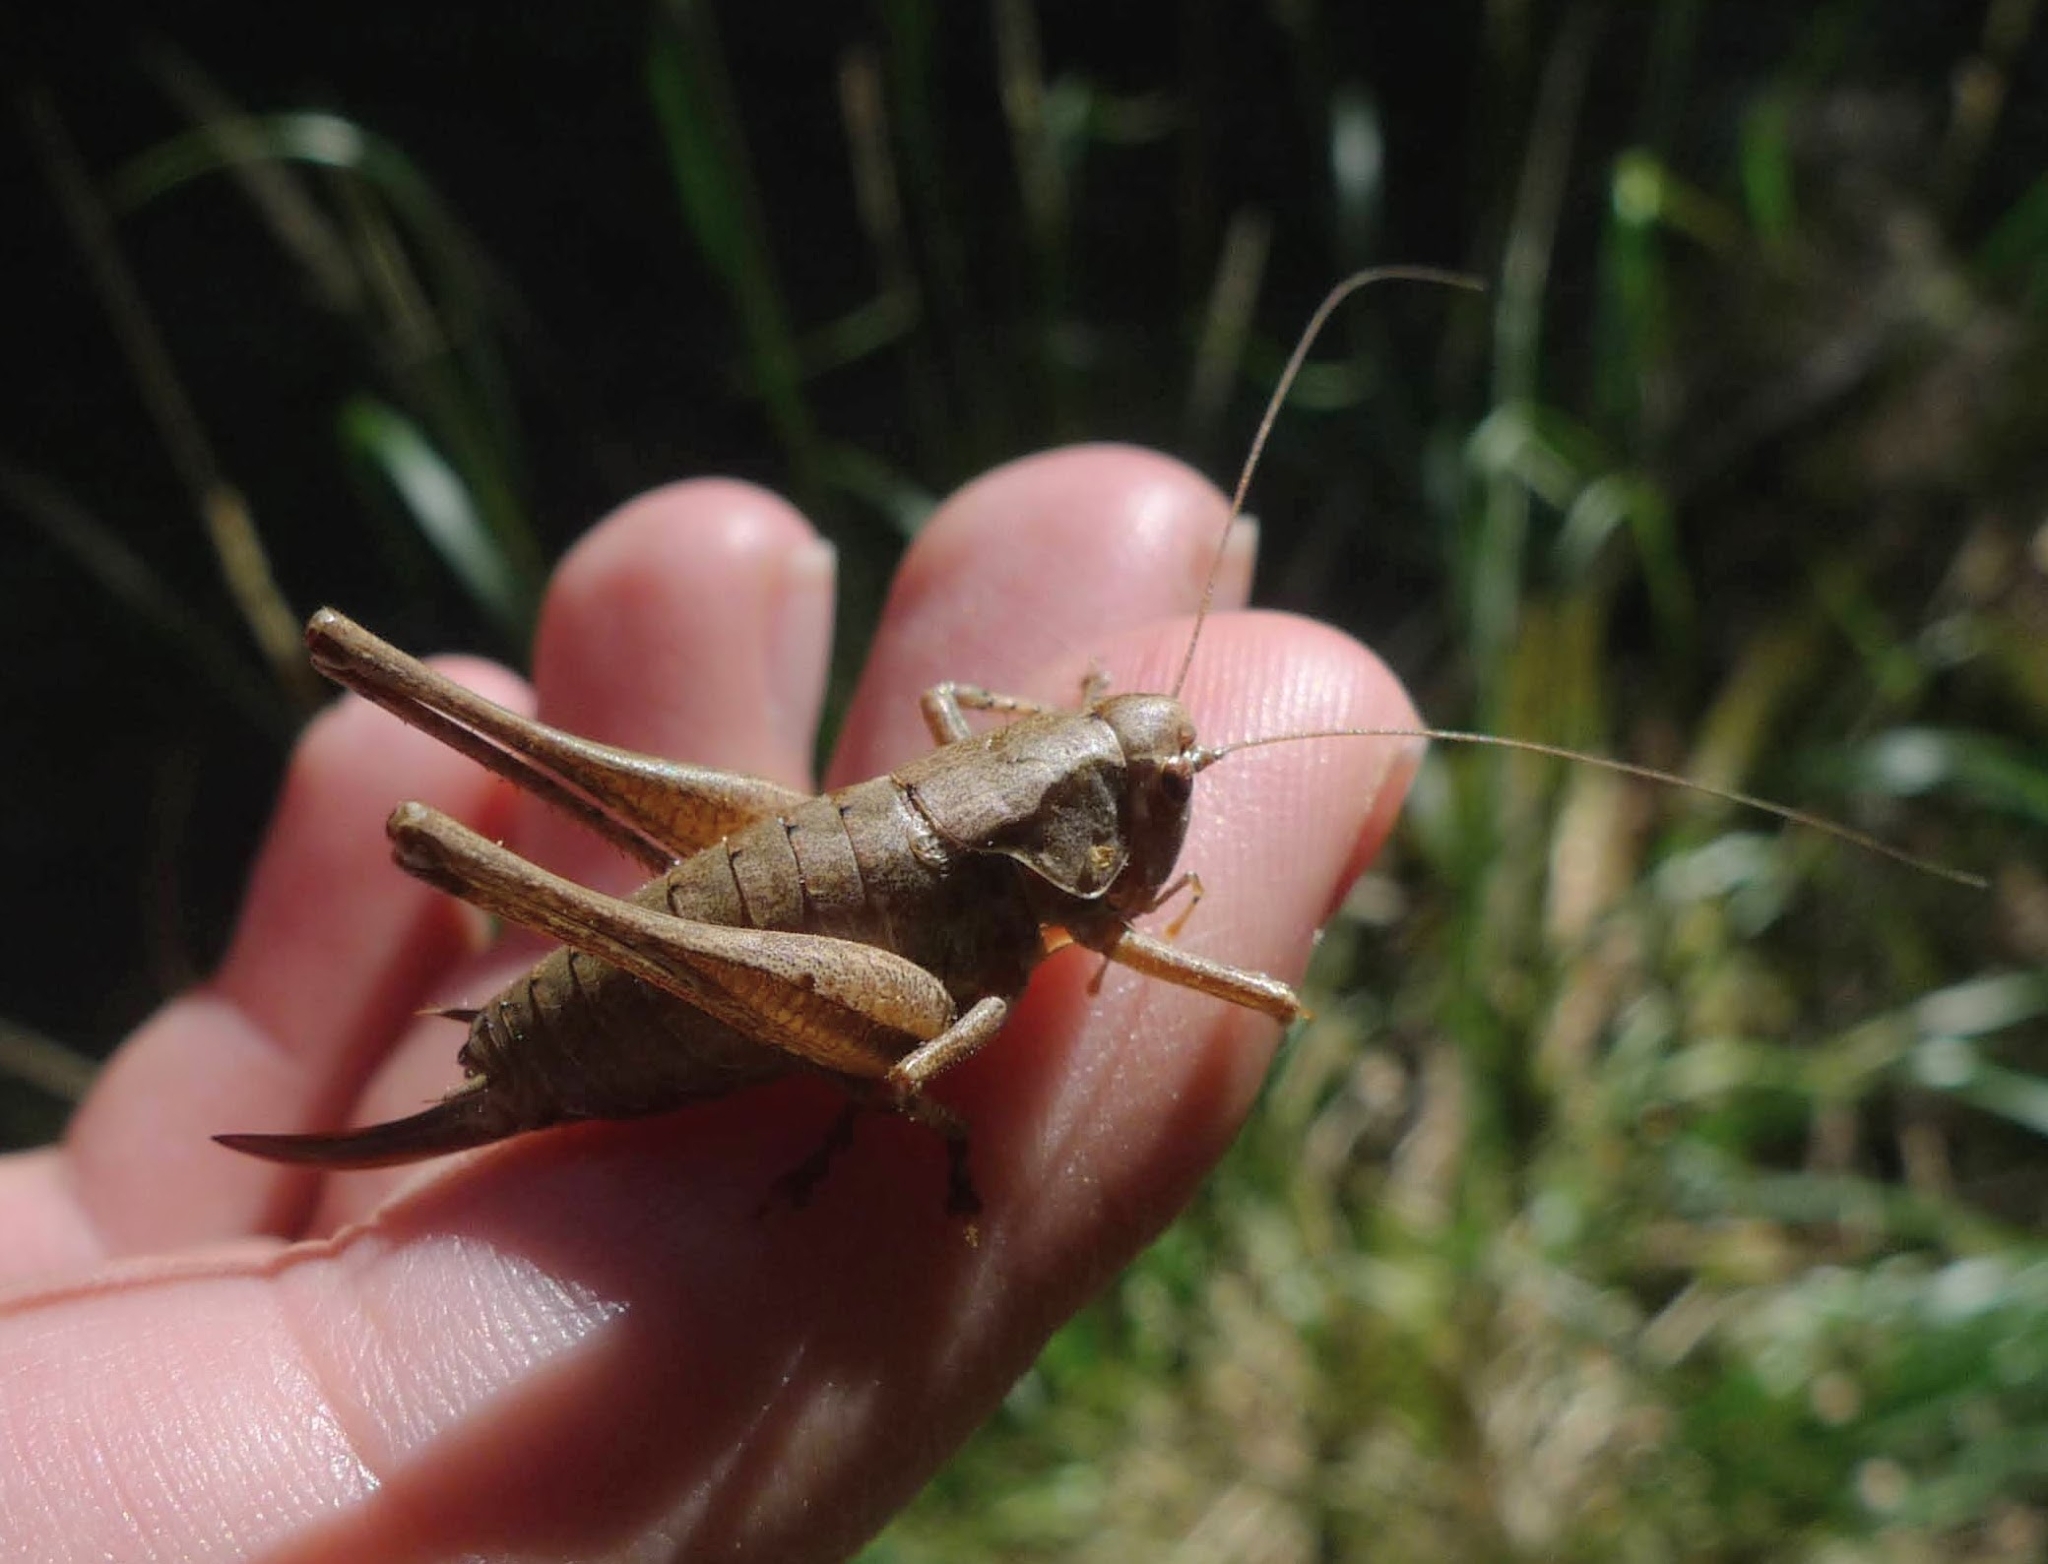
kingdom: Animalia
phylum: Arthropoda
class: Insecta
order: Orthoptera
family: Tettigoniidae
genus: Pholidoptera
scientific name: Pholidoptera griseoaptera
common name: Dark bush-cricket
